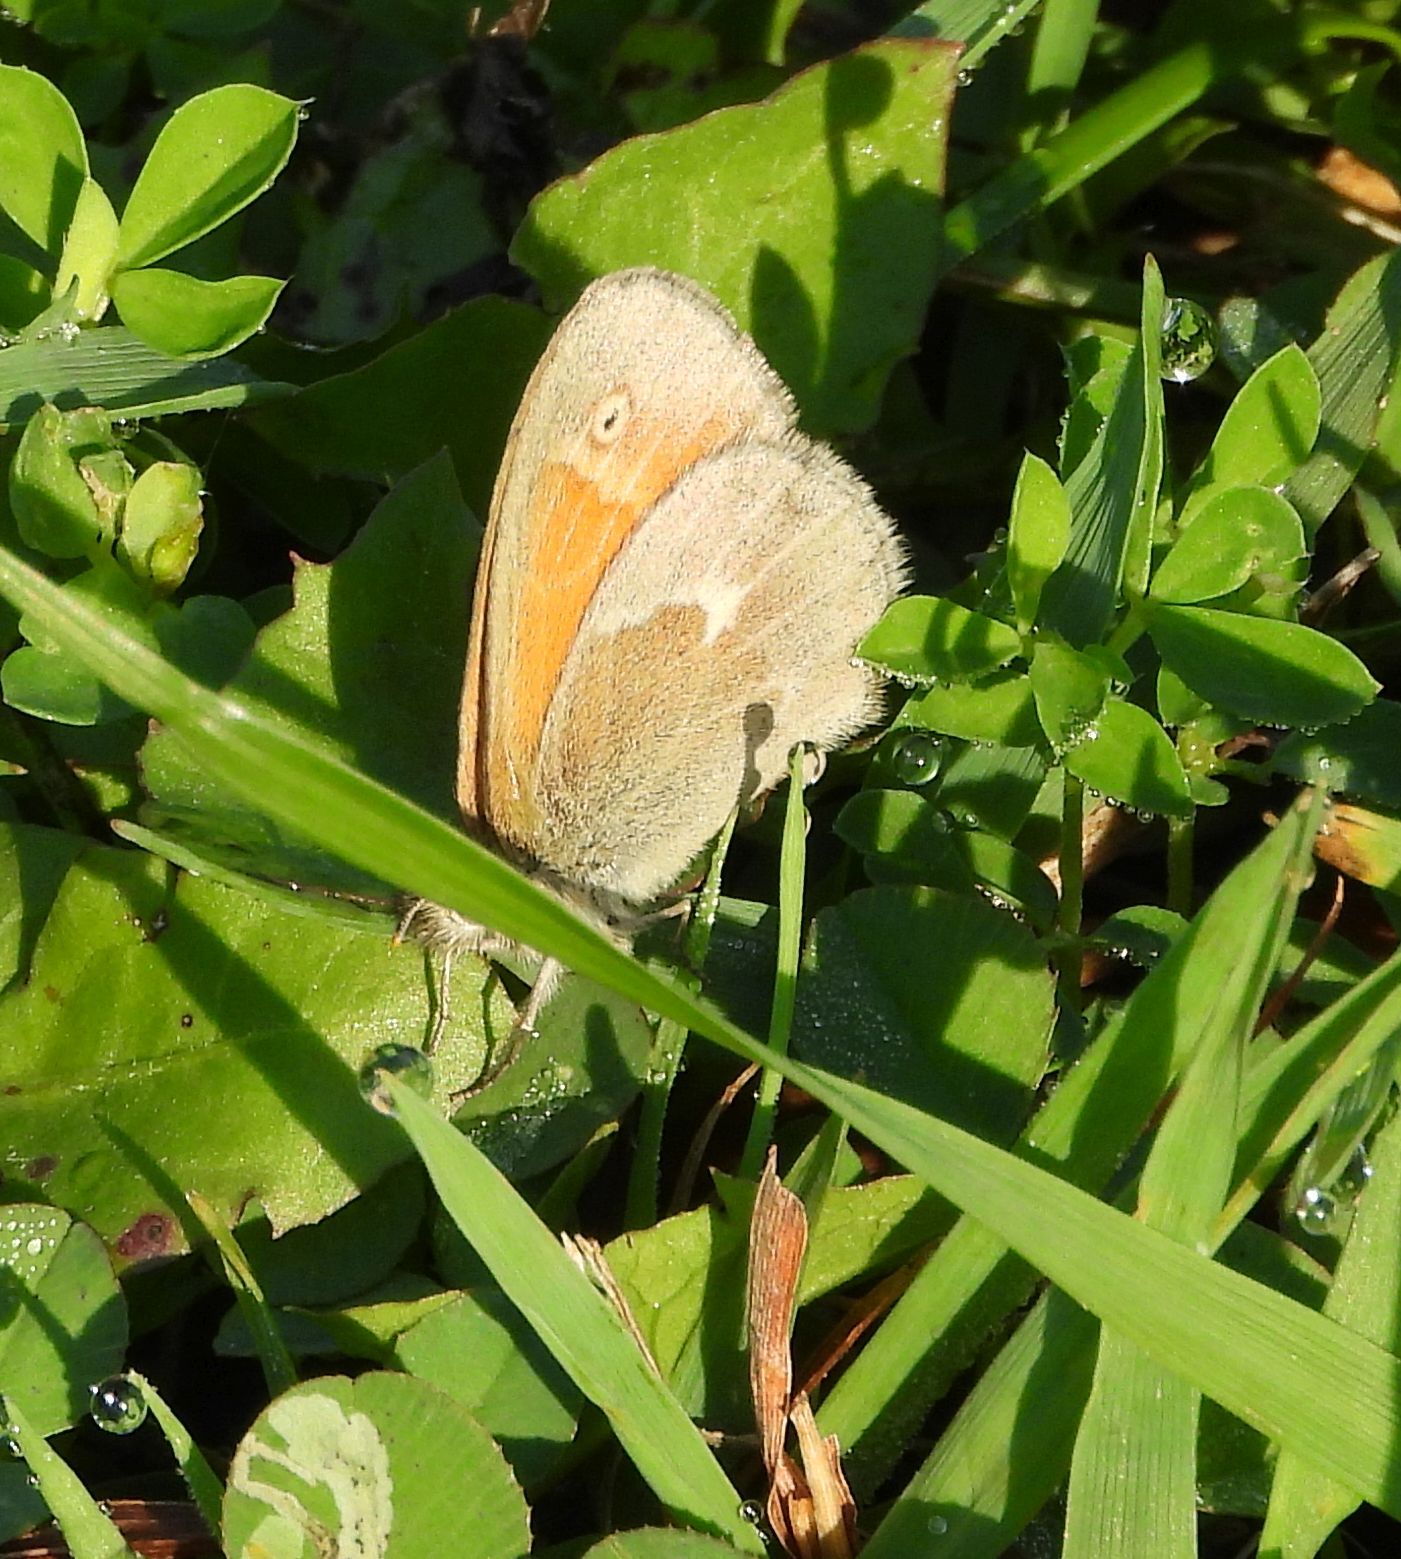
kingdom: Animalia
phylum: Arthropoda
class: Insecta
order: Lepidoptera
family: Nymphalidae
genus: Coenonympha
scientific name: Coenonympha california
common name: Common ringlet
